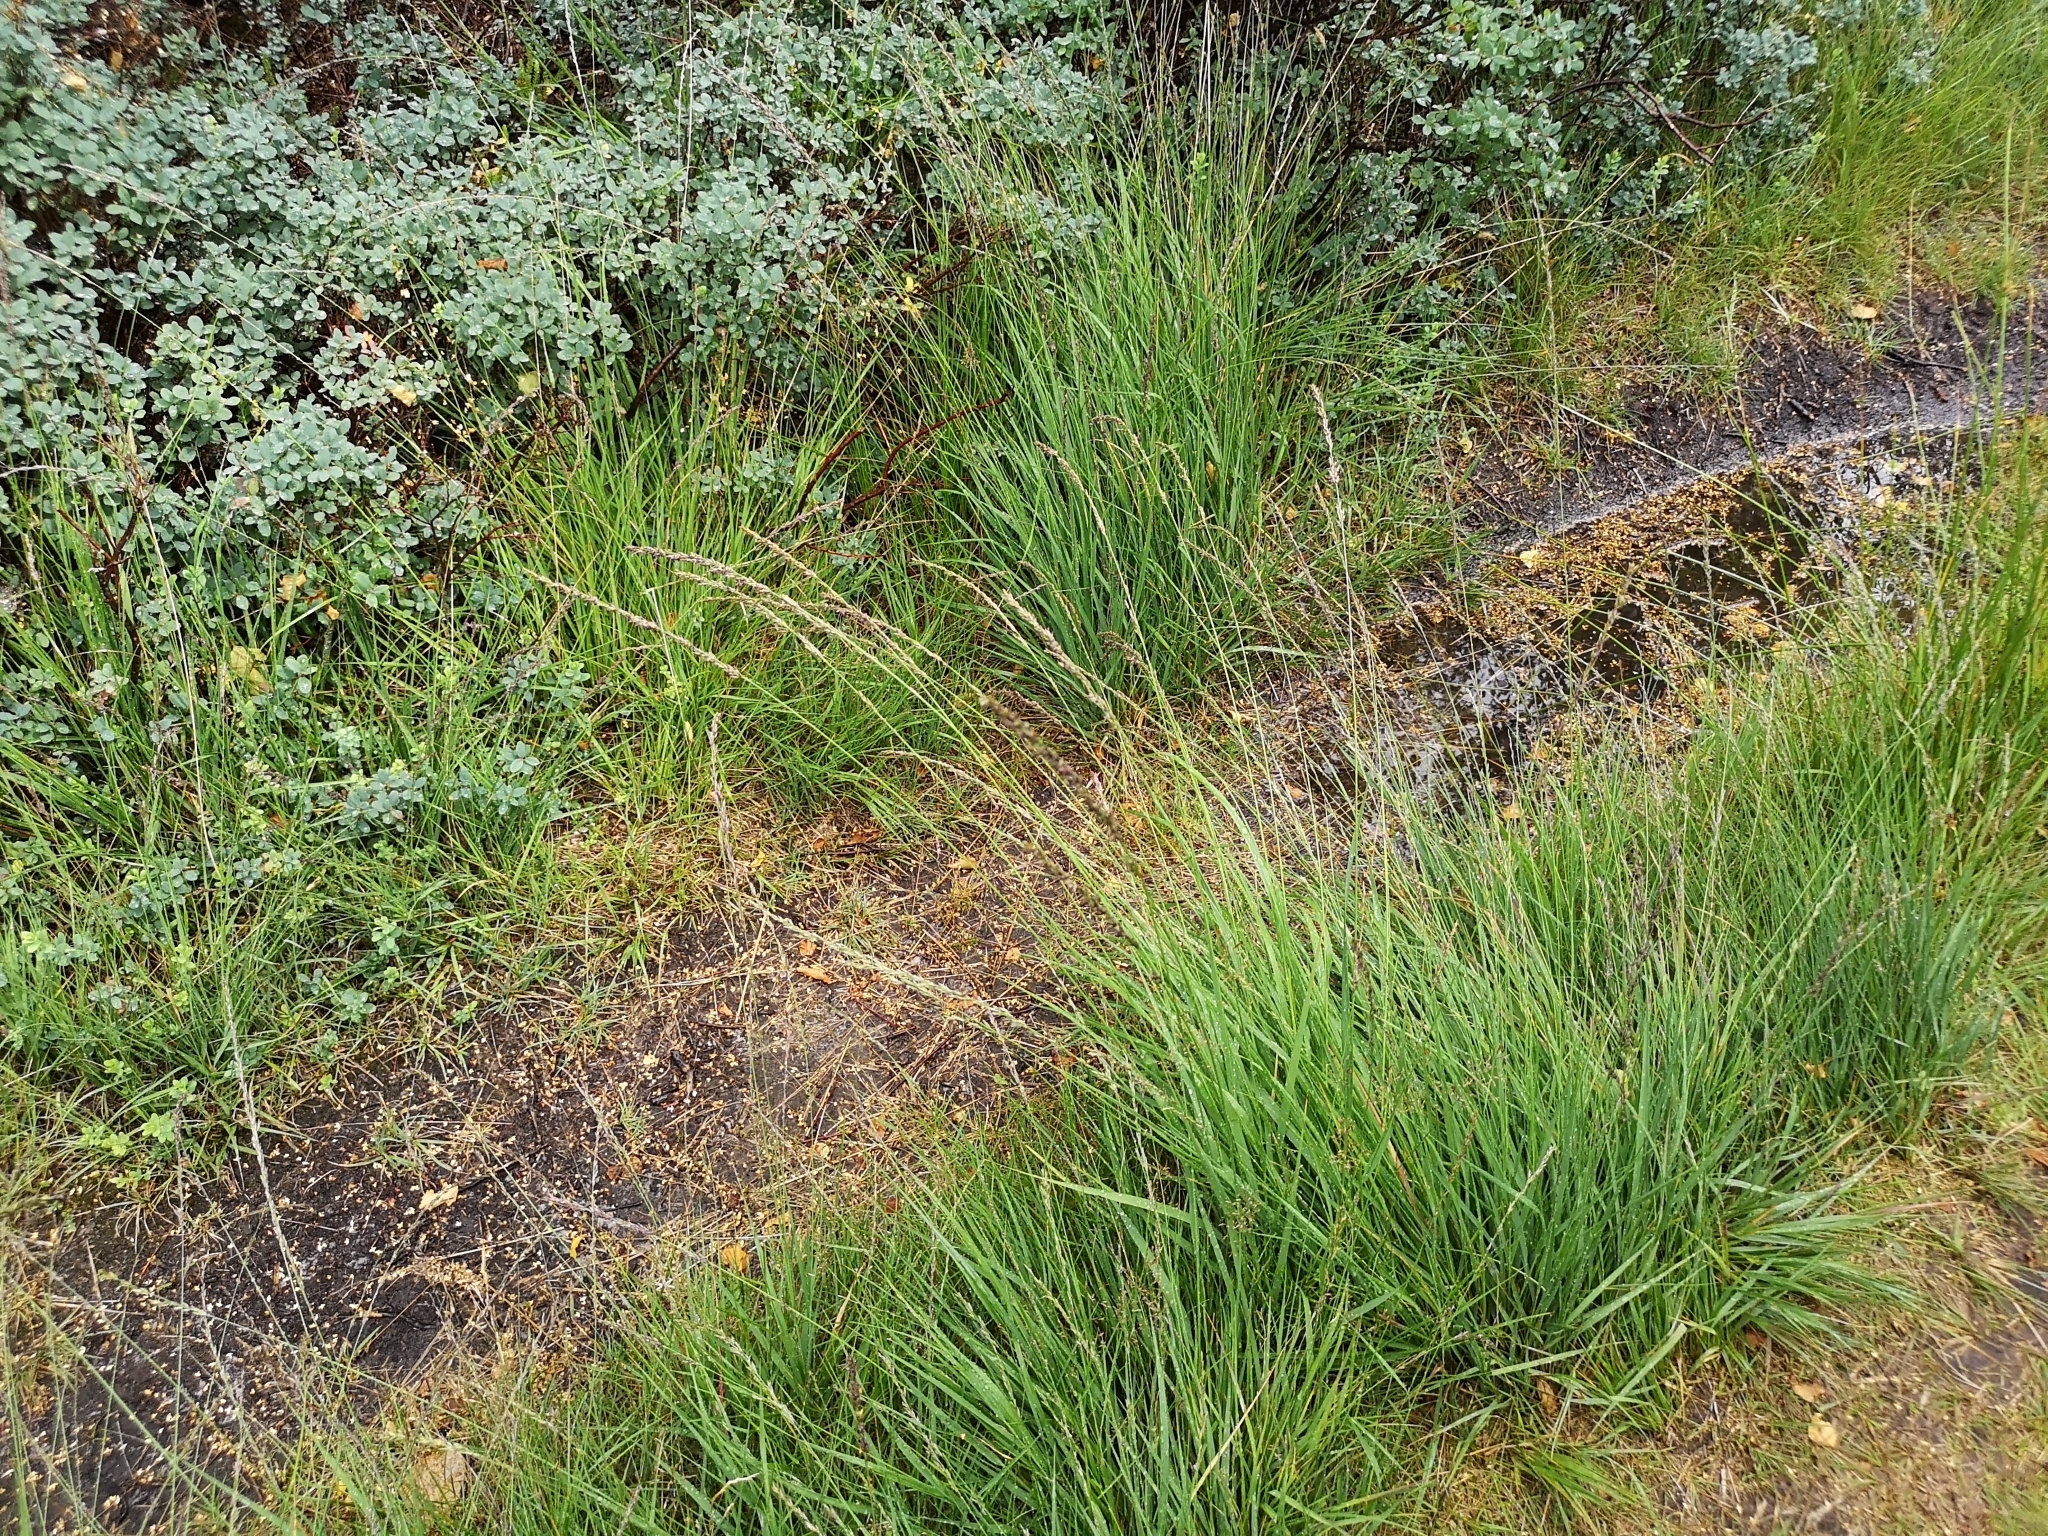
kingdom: Plantae
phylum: Tracheophyta
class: Liliopsida
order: Poales
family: Poaceae
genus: Molinia
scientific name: Molinia caerulea
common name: Purple moor-grass
